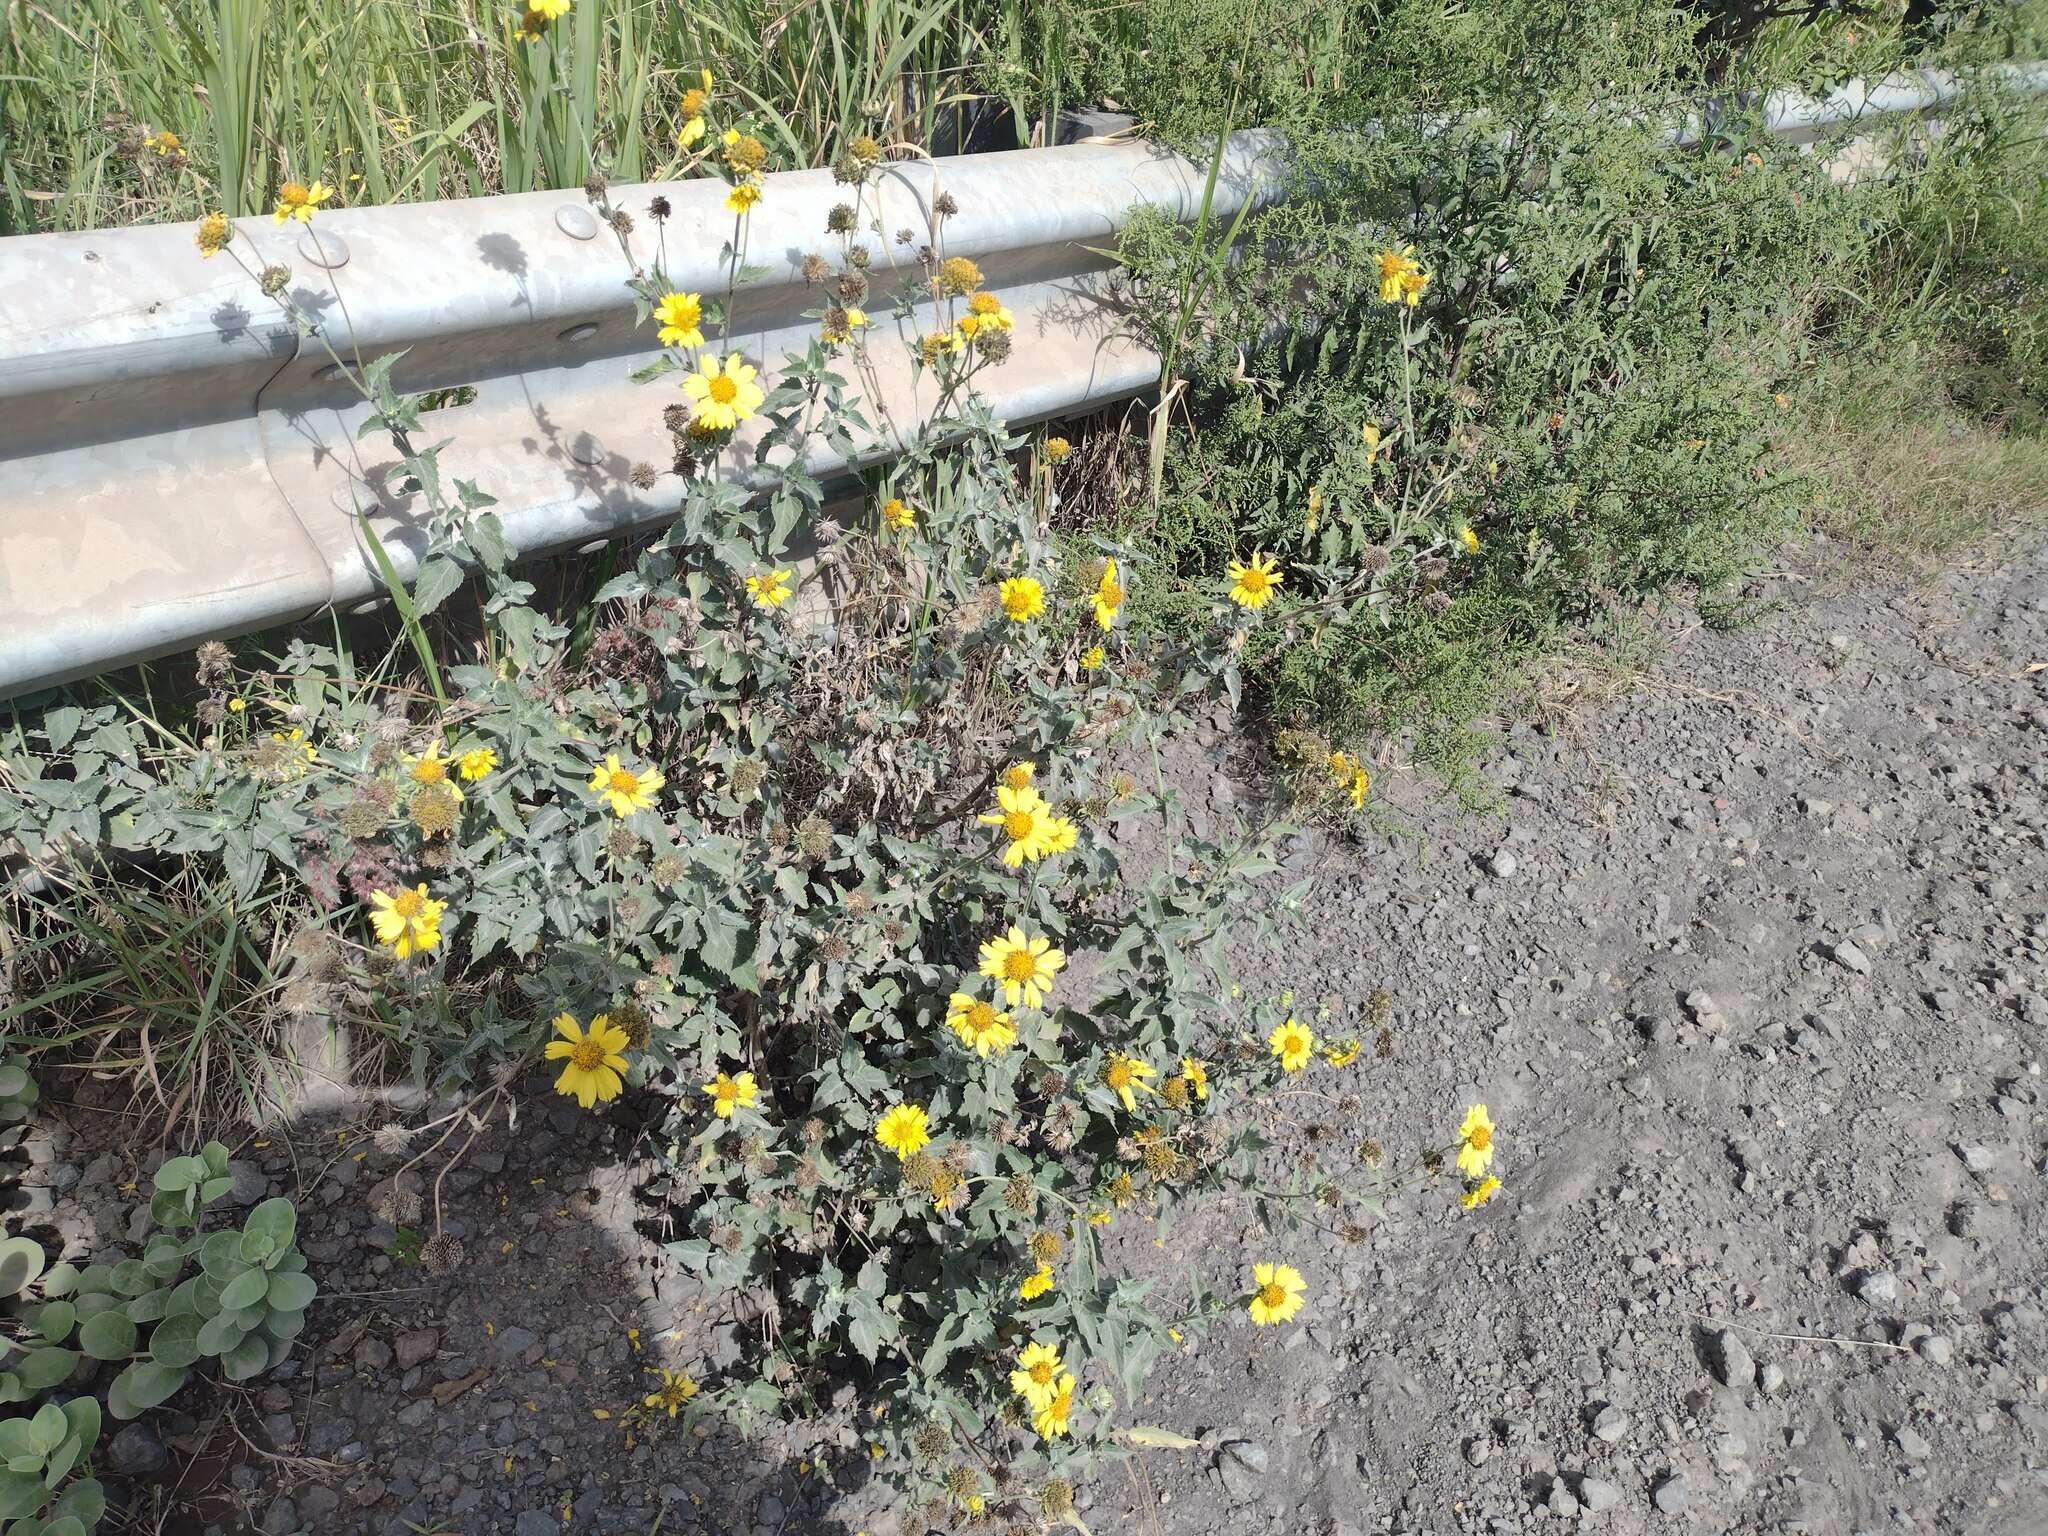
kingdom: Plantae
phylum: Tracheophyta
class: Magnoliopsida
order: Asterales
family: Asteraceae
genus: Verbesina
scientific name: Verbesina encelioides
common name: Golden crownbeard
